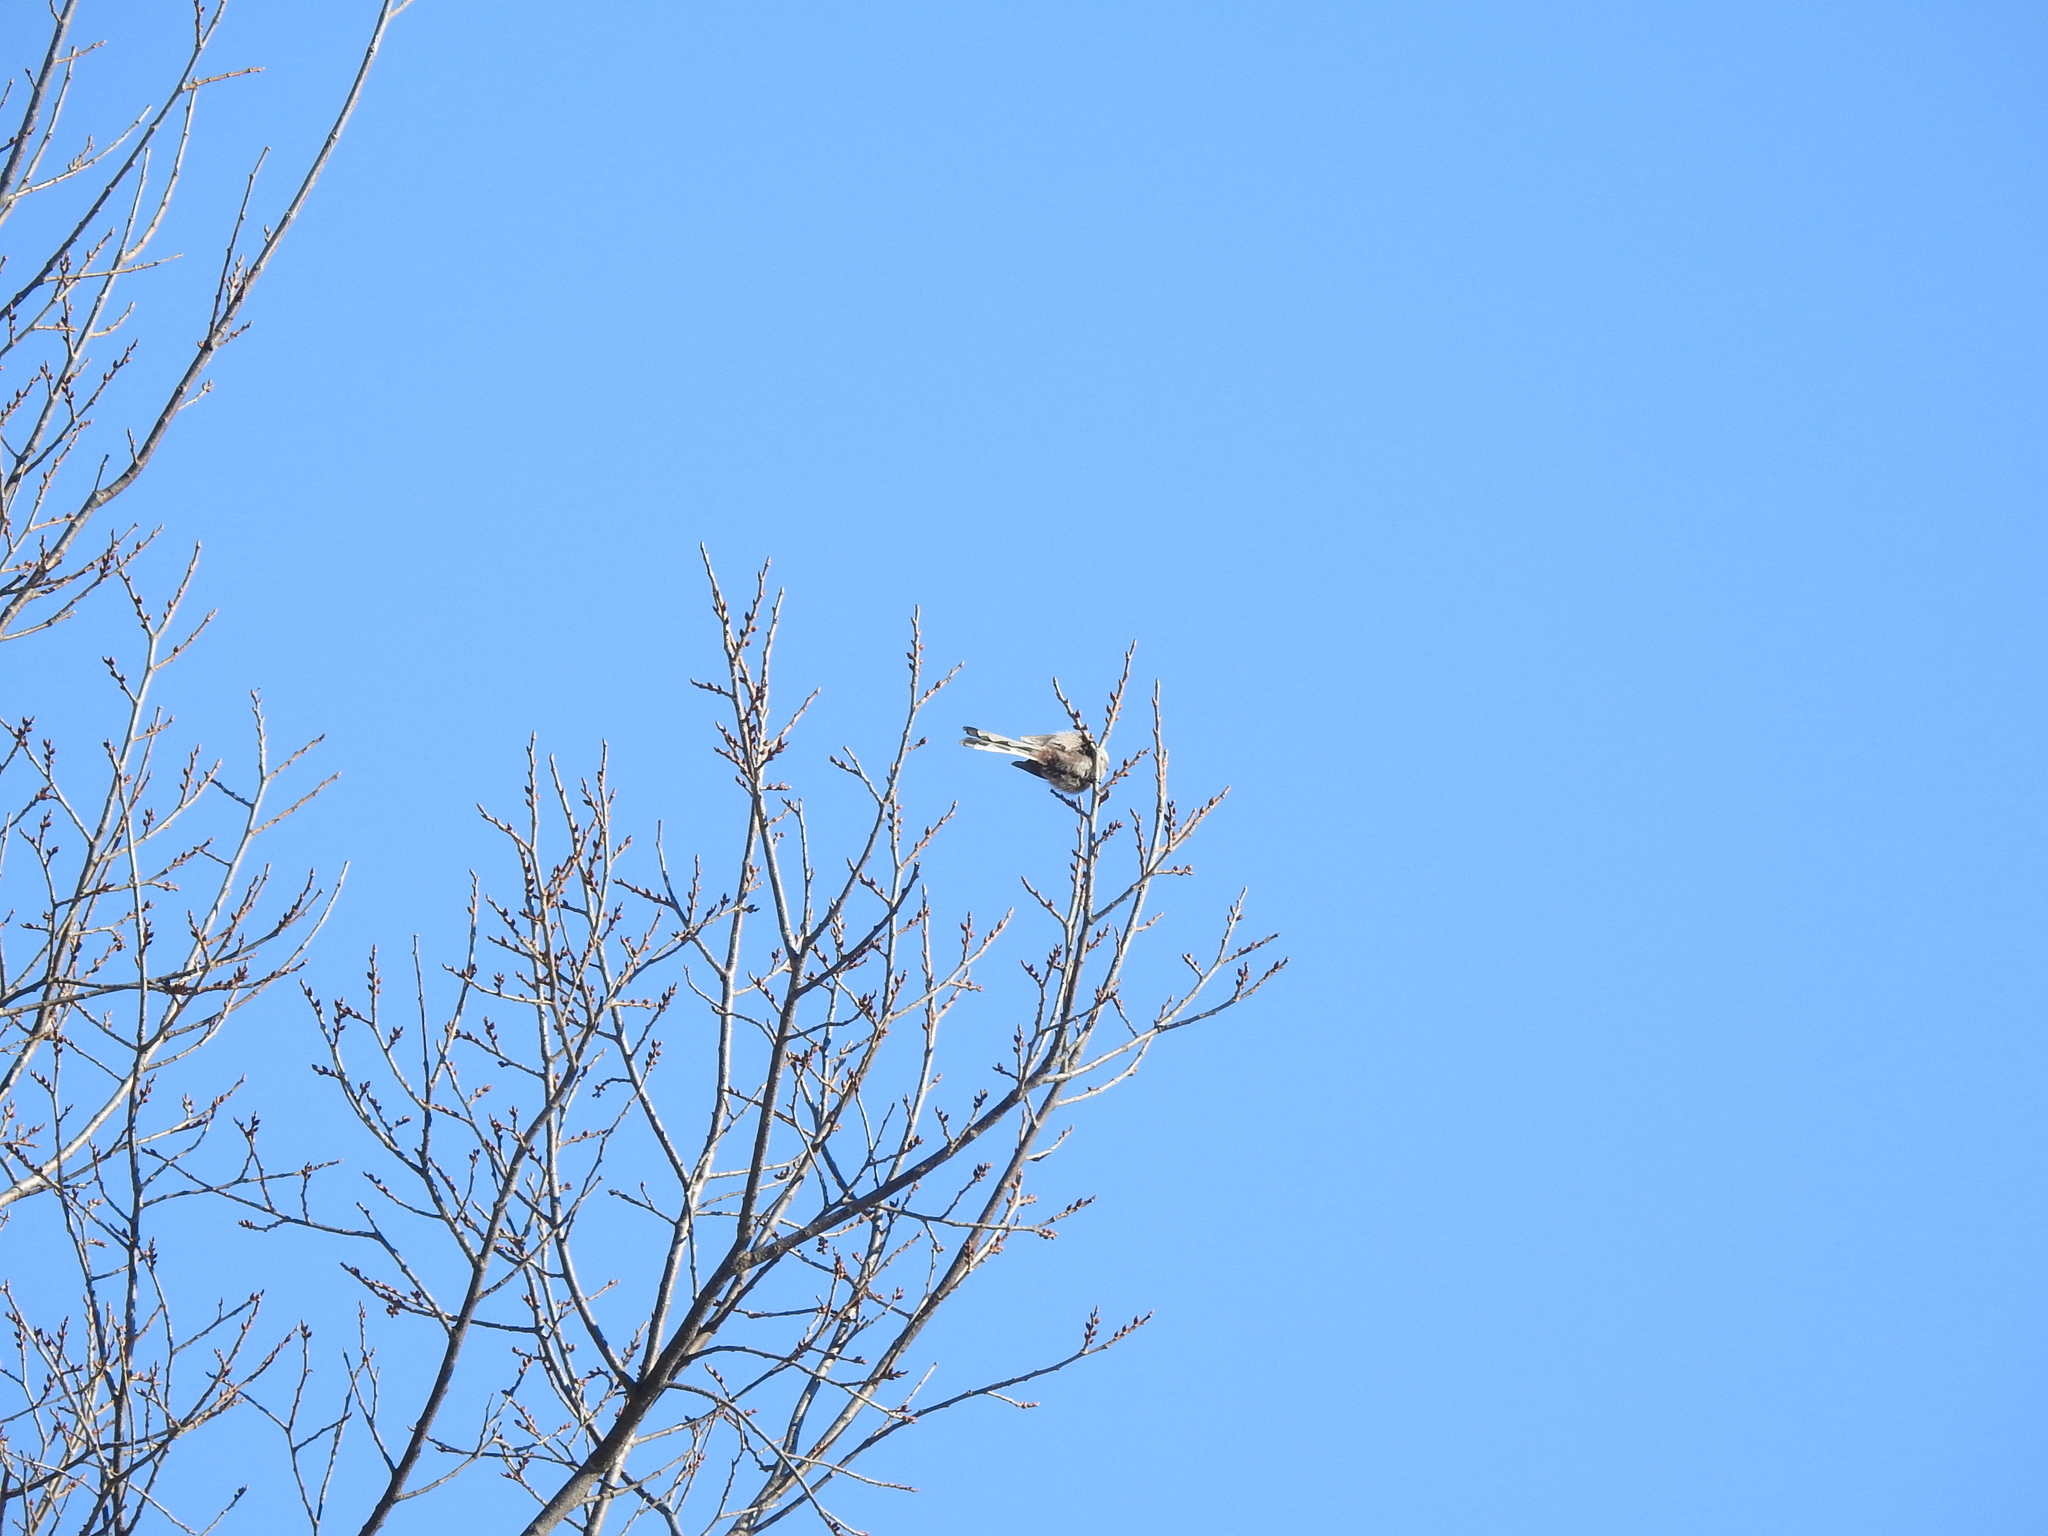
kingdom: Animalia
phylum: Chordata
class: Aves
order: Passeriformes
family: Aegithalidae
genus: Aegithalos
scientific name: Aegithalos caudatus
